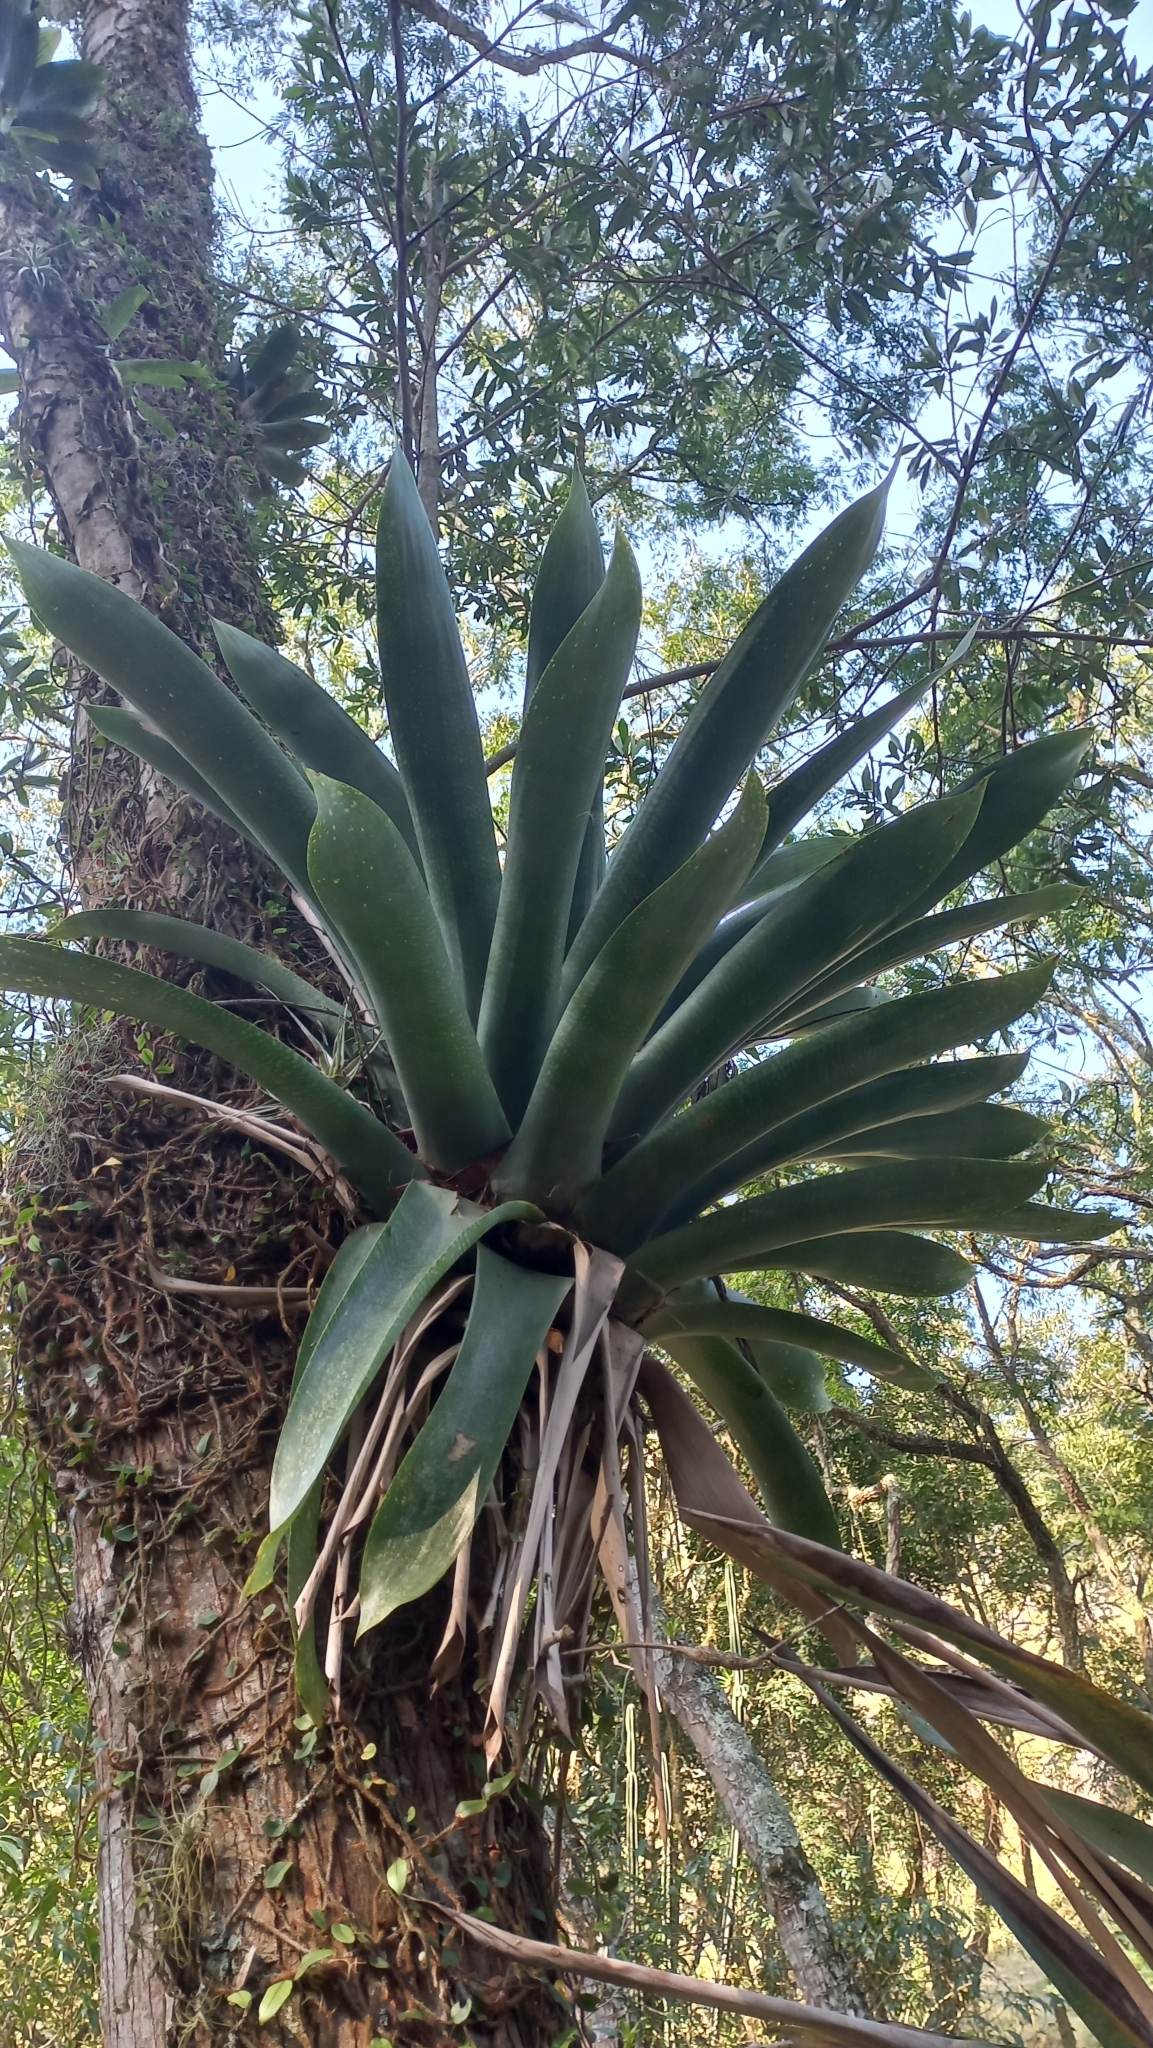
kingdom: Plantae
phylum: Tracheophyta
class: Liliopsida
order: Poales
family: Bromeliaceae
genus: Vriesea
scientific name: Vriesea gigantea
